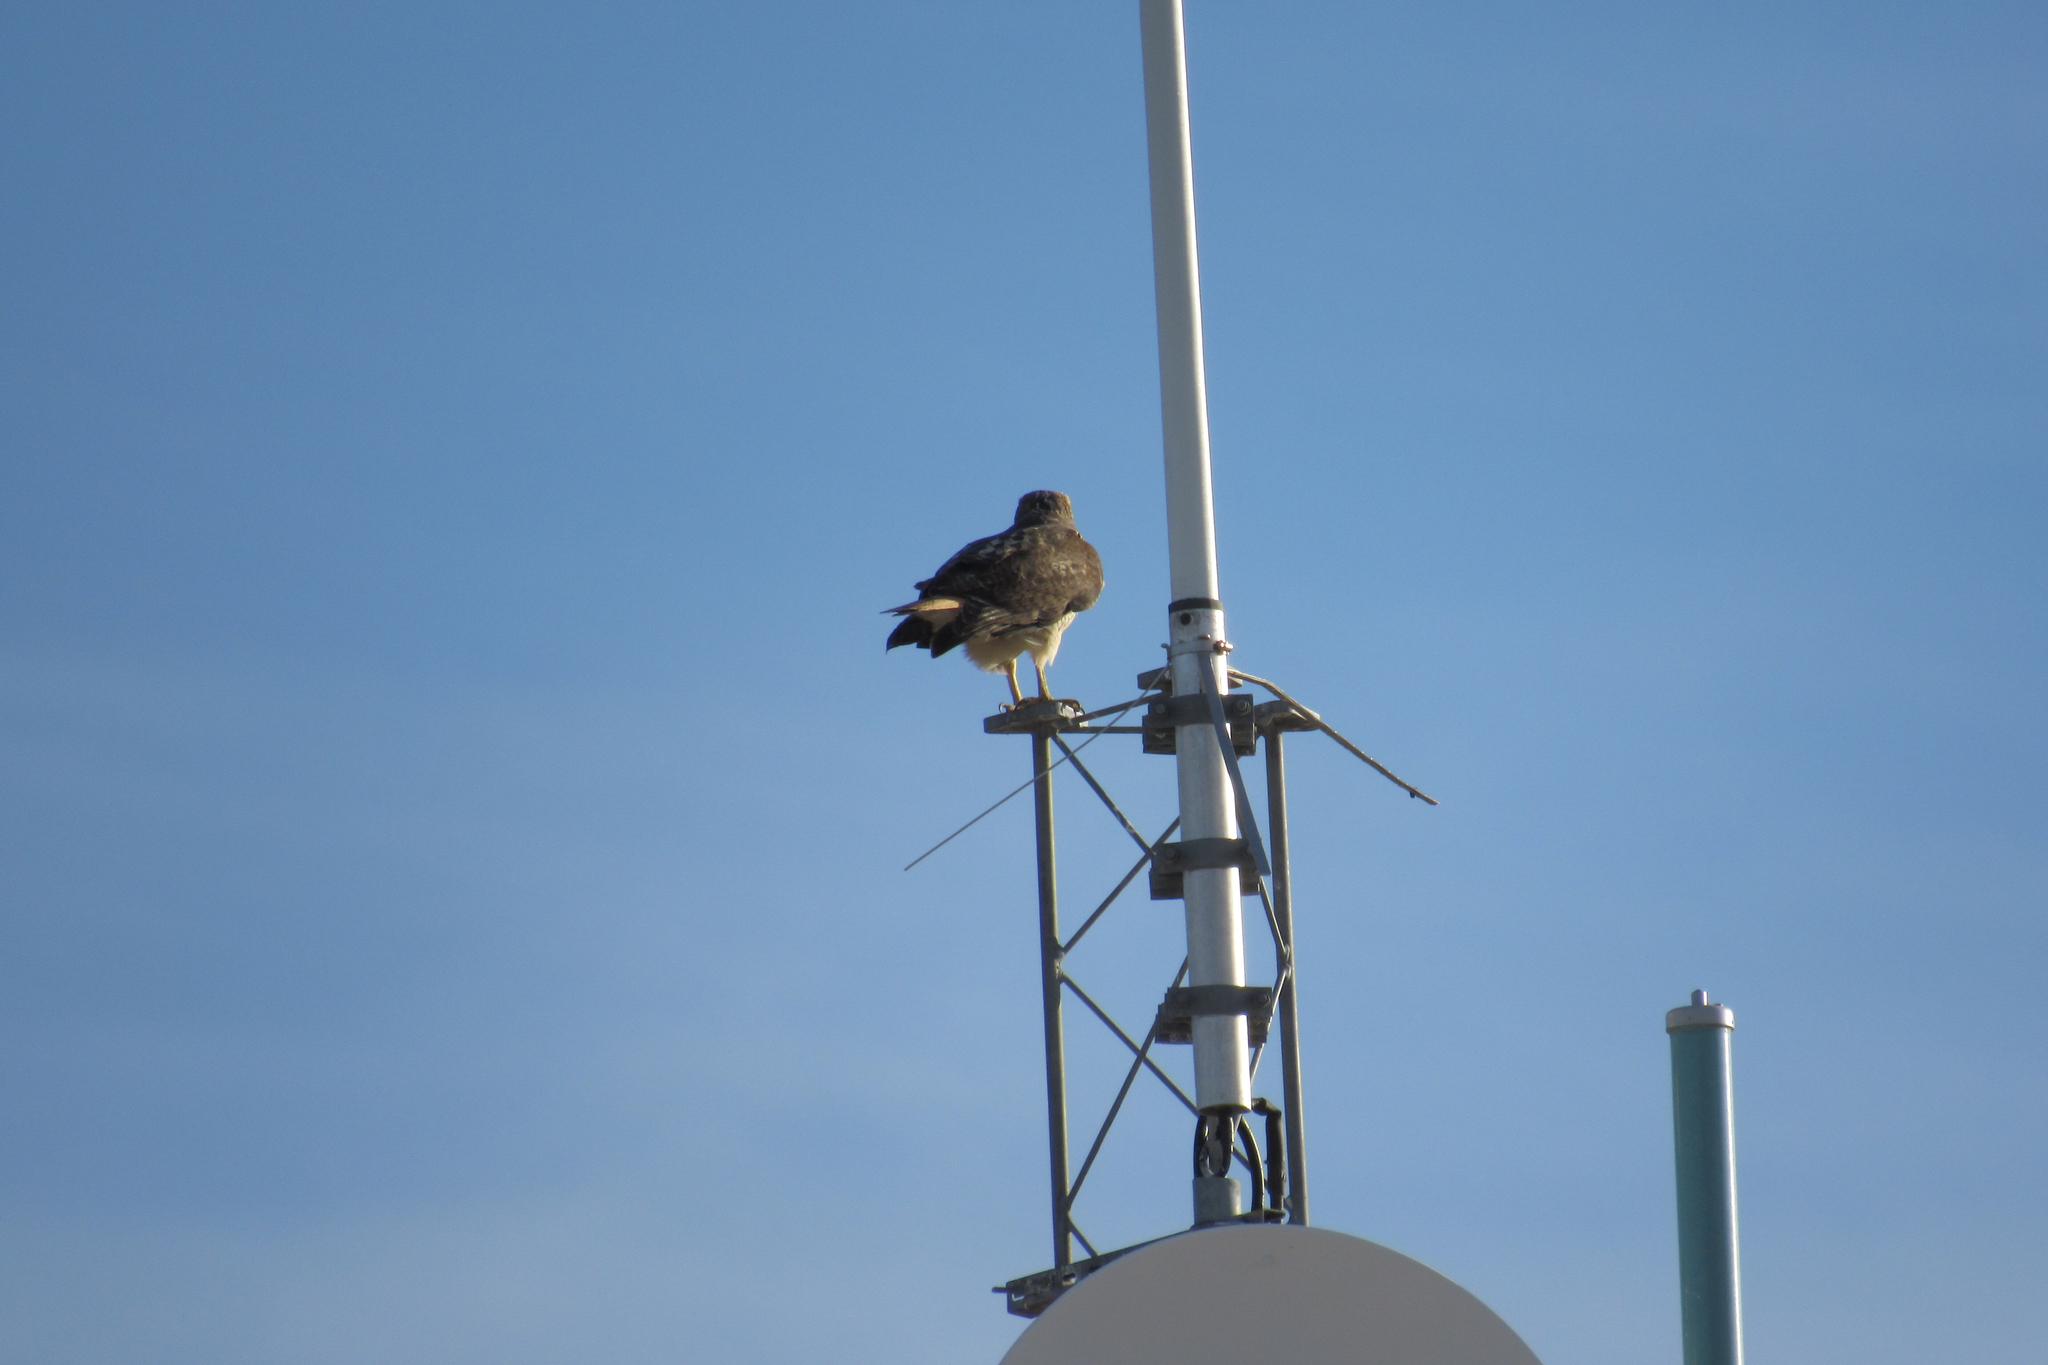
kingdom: Animalia
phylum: Chordata
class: Aves
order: Accipitriformes
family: Accipitridae
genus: Buteo
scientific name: Buteo jamaicensis
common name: Red-tailed hawk
